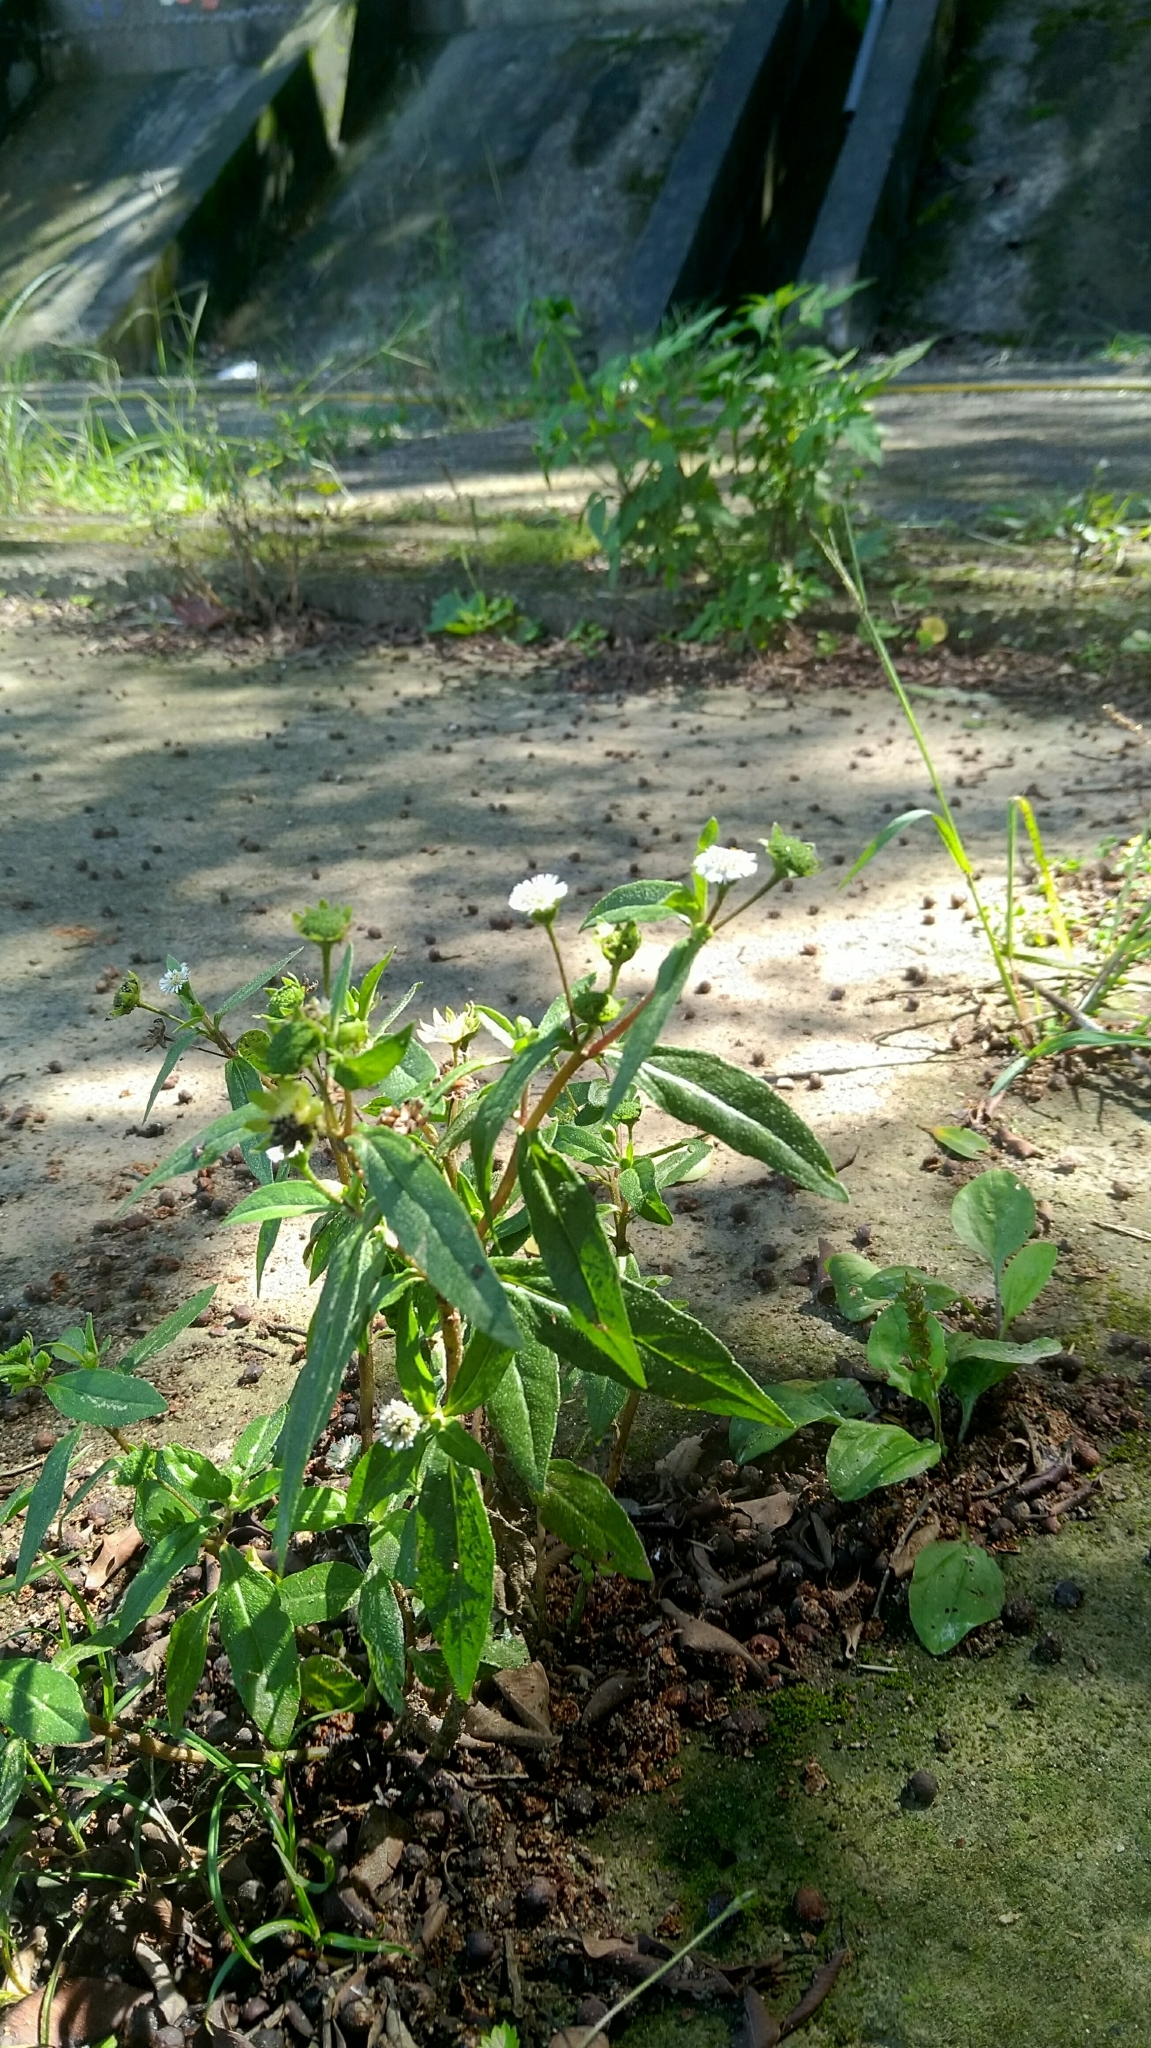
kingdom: Plantae
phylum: Tracheophyta
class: Magnoliopsida
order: Asterales
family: Asteraceae
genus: Eclipta
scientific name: Eclipta prostrata
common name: False daisy
